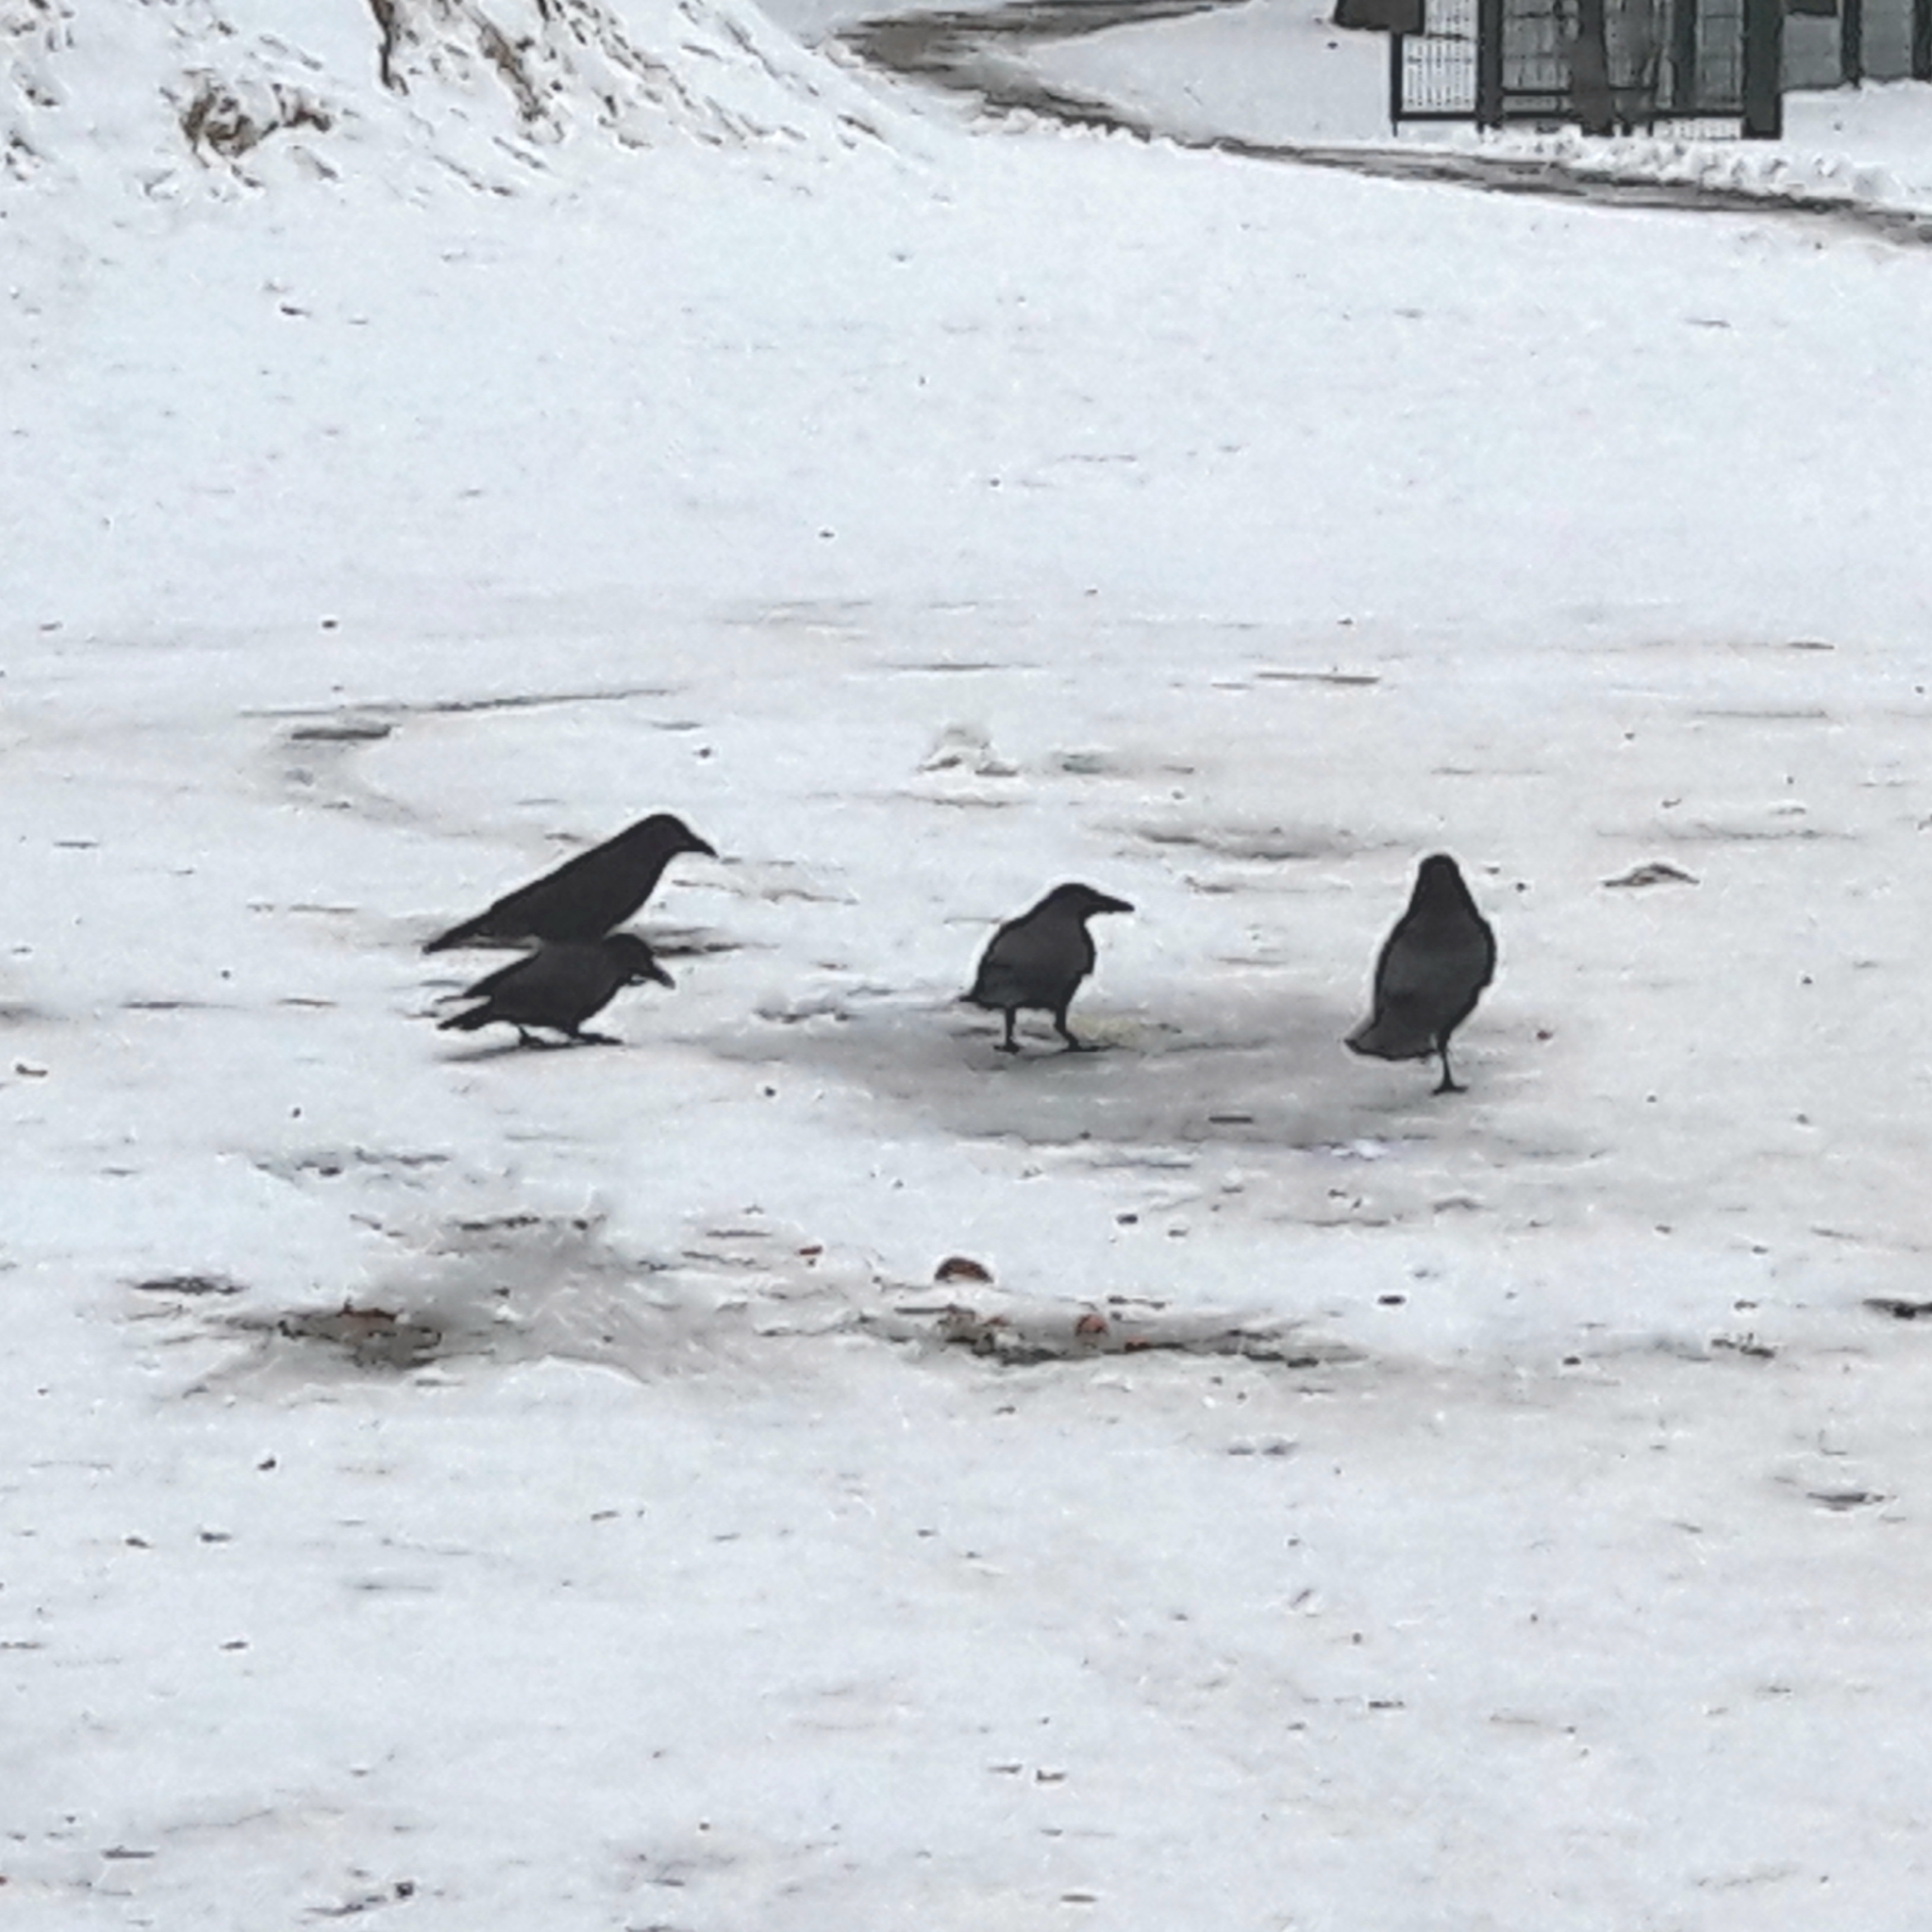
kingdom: Animalia
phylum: Chordata
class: Aves
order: Passeriformes
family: Corvidae
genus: Corvus
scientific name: Corvus corone
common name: Carrion crow
